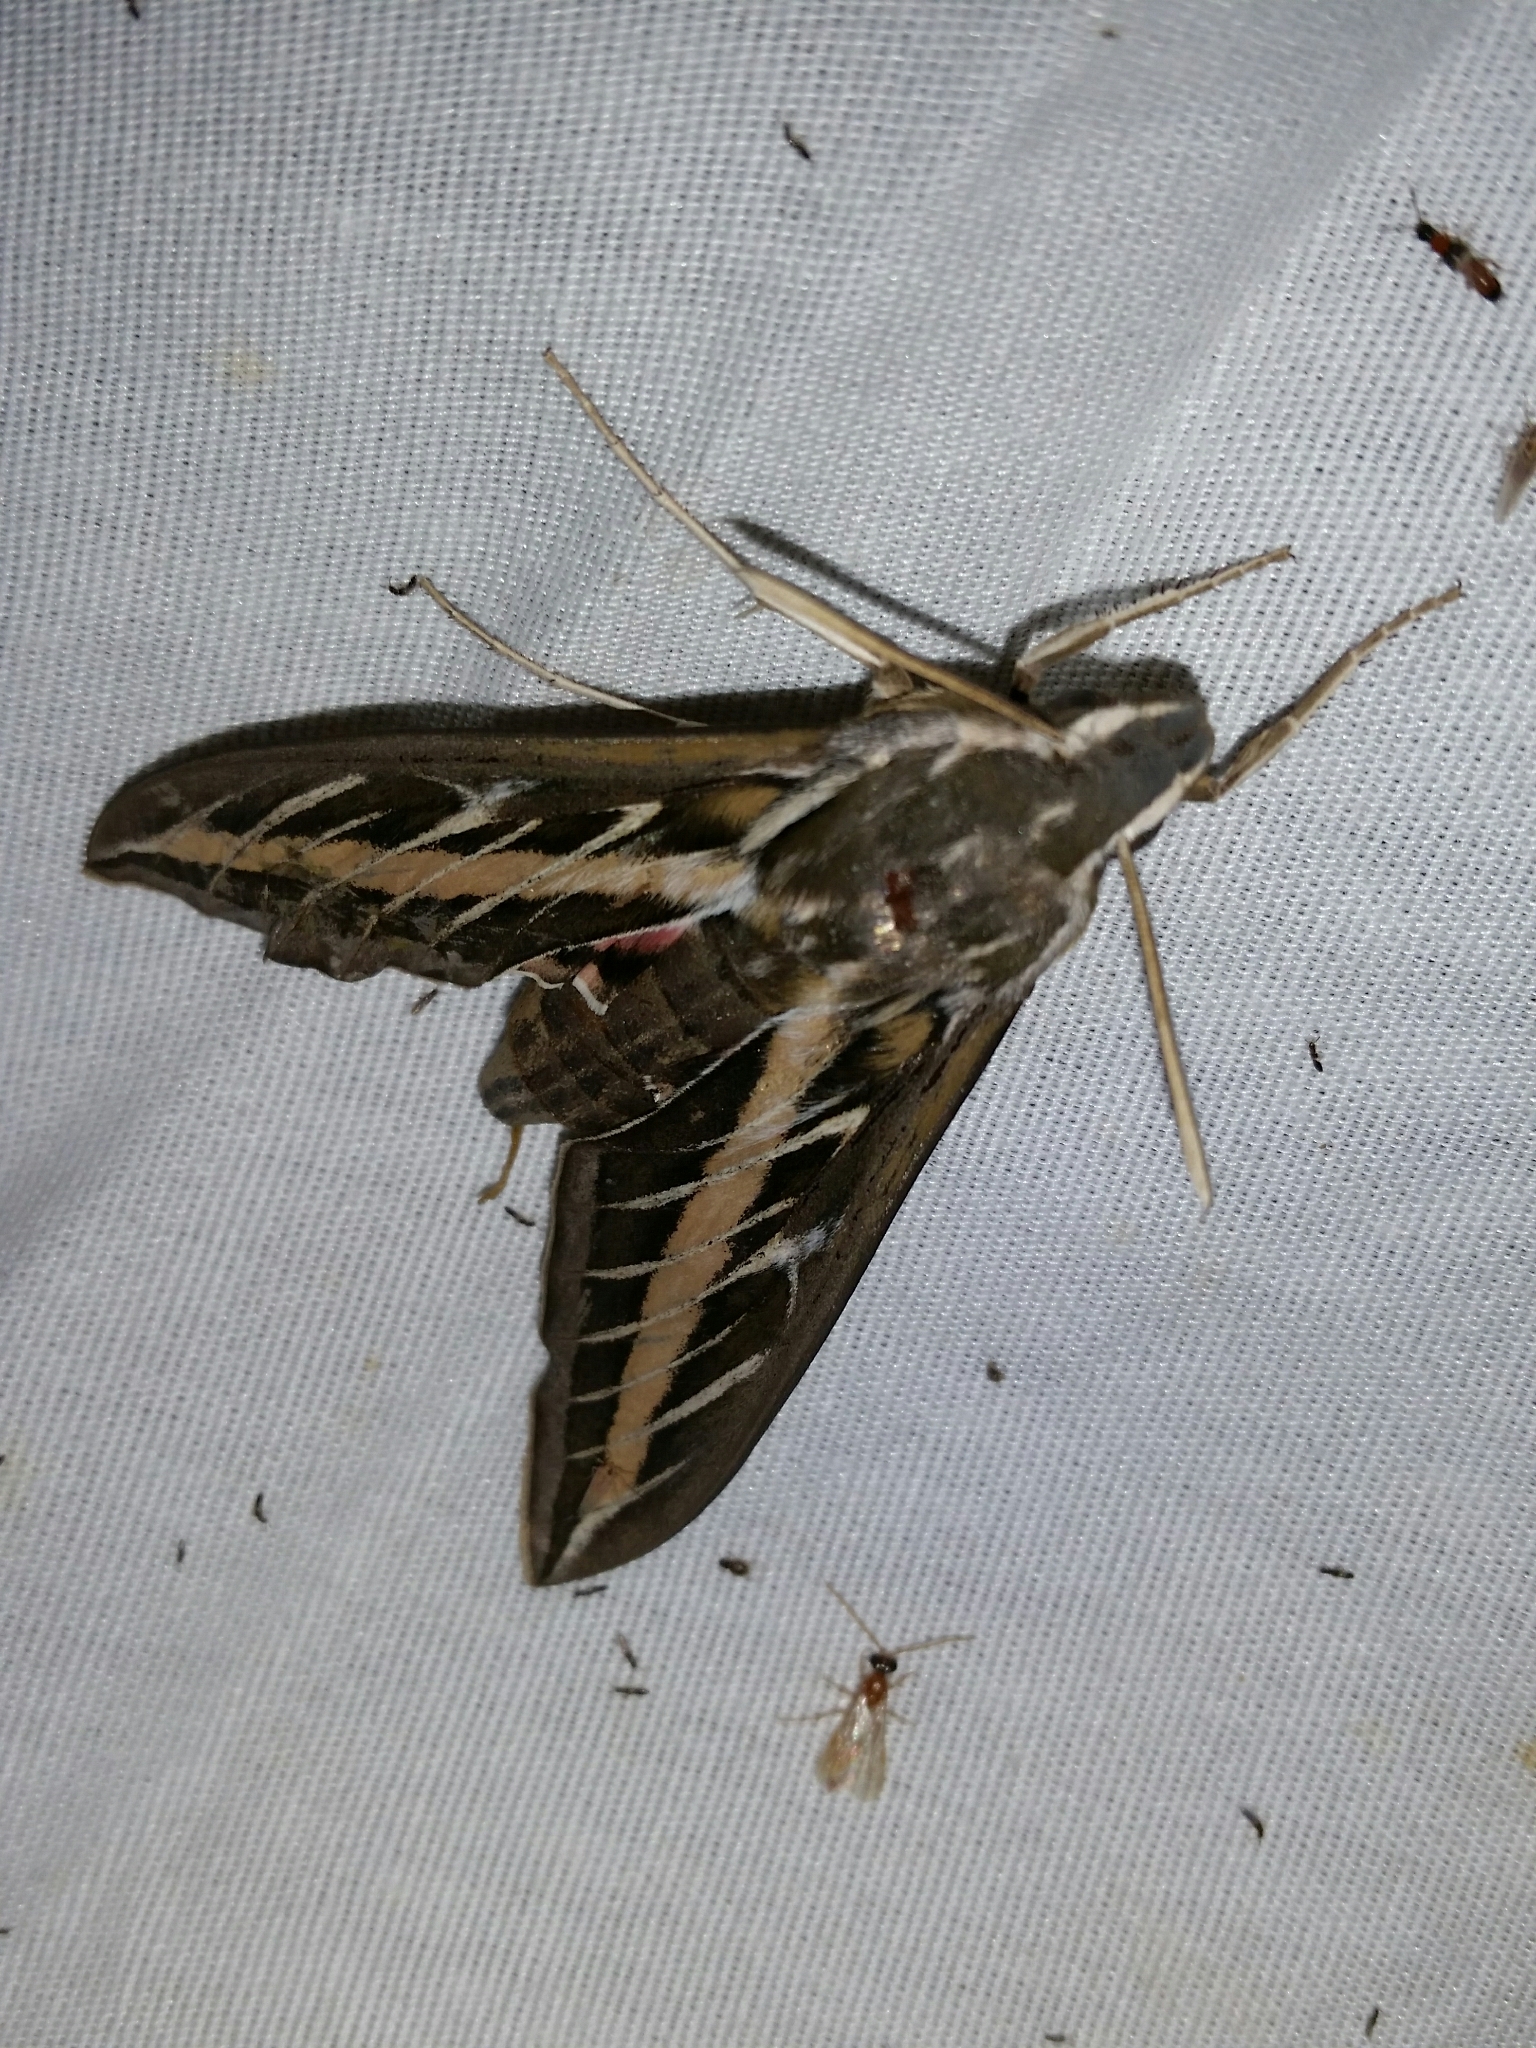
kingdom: Animalia
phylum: Arthropoda
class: Insecta
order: Lepidoptera
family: Sphingidae
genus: Hyles
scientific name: Hyles lineata
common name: White-lined sphinx
